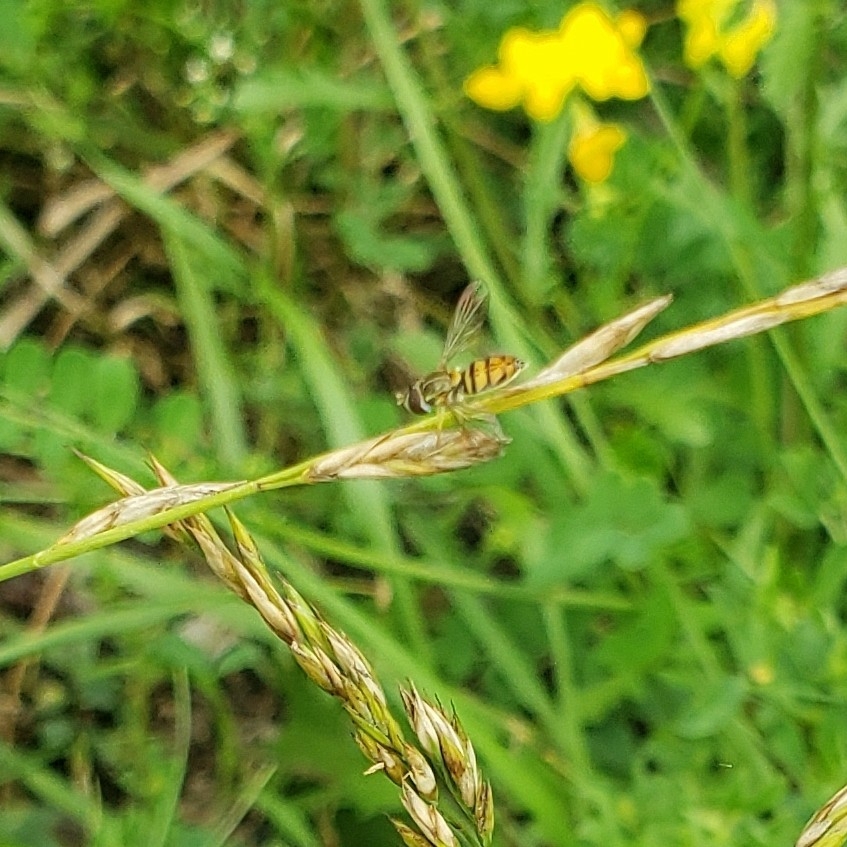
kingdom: Animalia
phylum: Arthropoda
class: Insecta
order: Diptera
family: Syrphidae
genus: Toxomerus
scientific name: Toxomerus marginatus
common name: Syrphid fly
